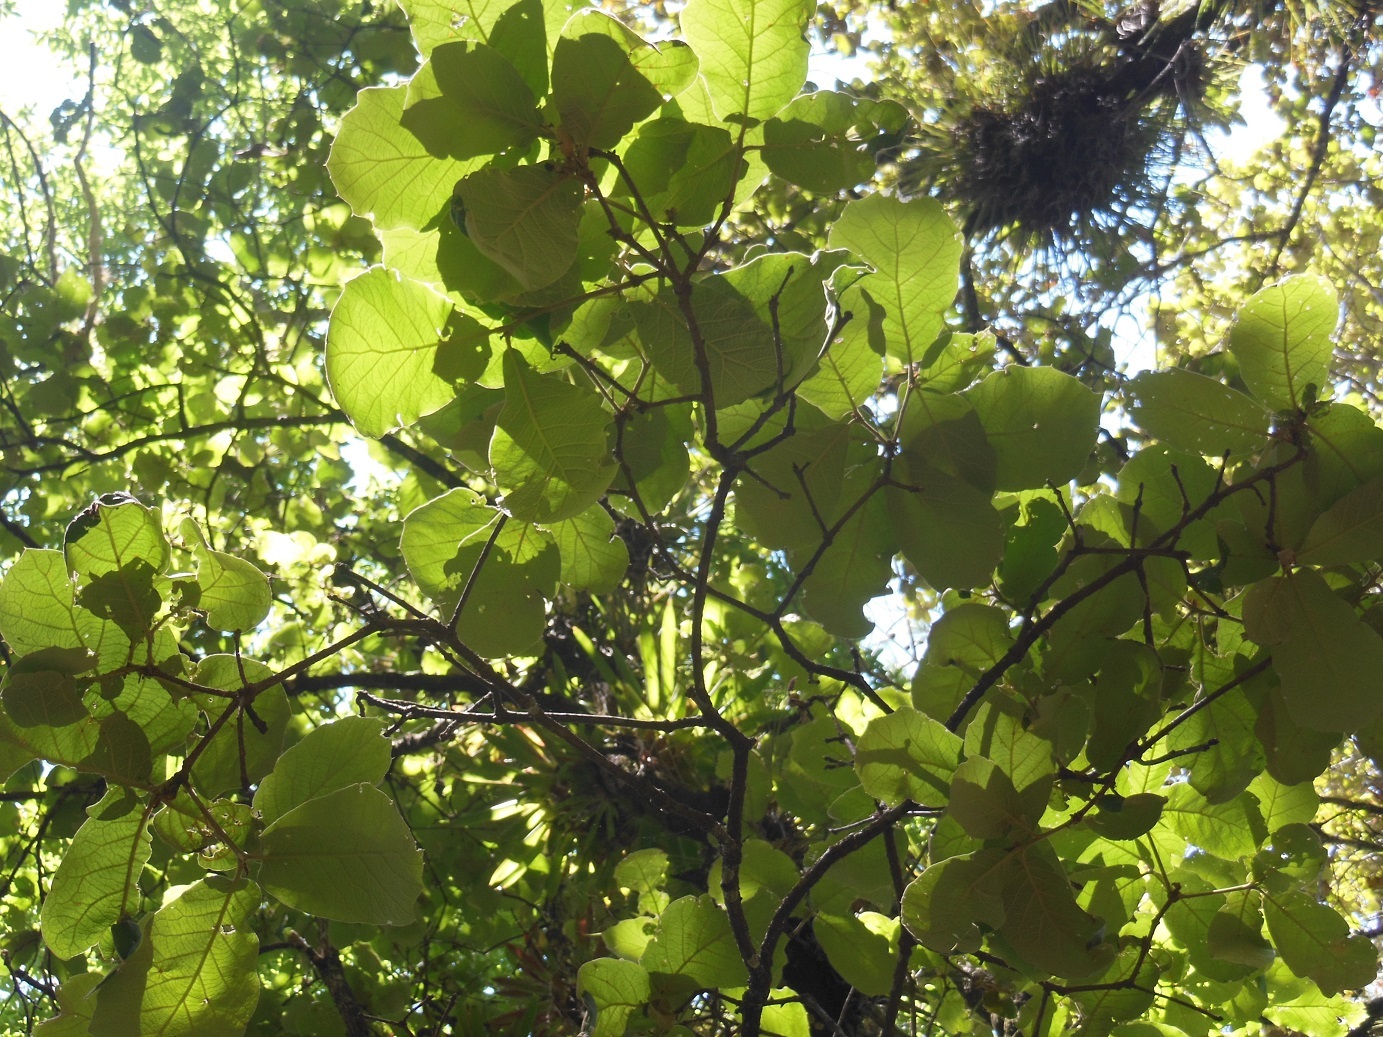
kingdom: Plantae
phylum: Tracheophyta
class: Magnoliopsida
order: Fagales
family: Fagaceae
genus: Quercus
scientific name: Quercus crassifolia
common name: Leather leaf mexican oak
